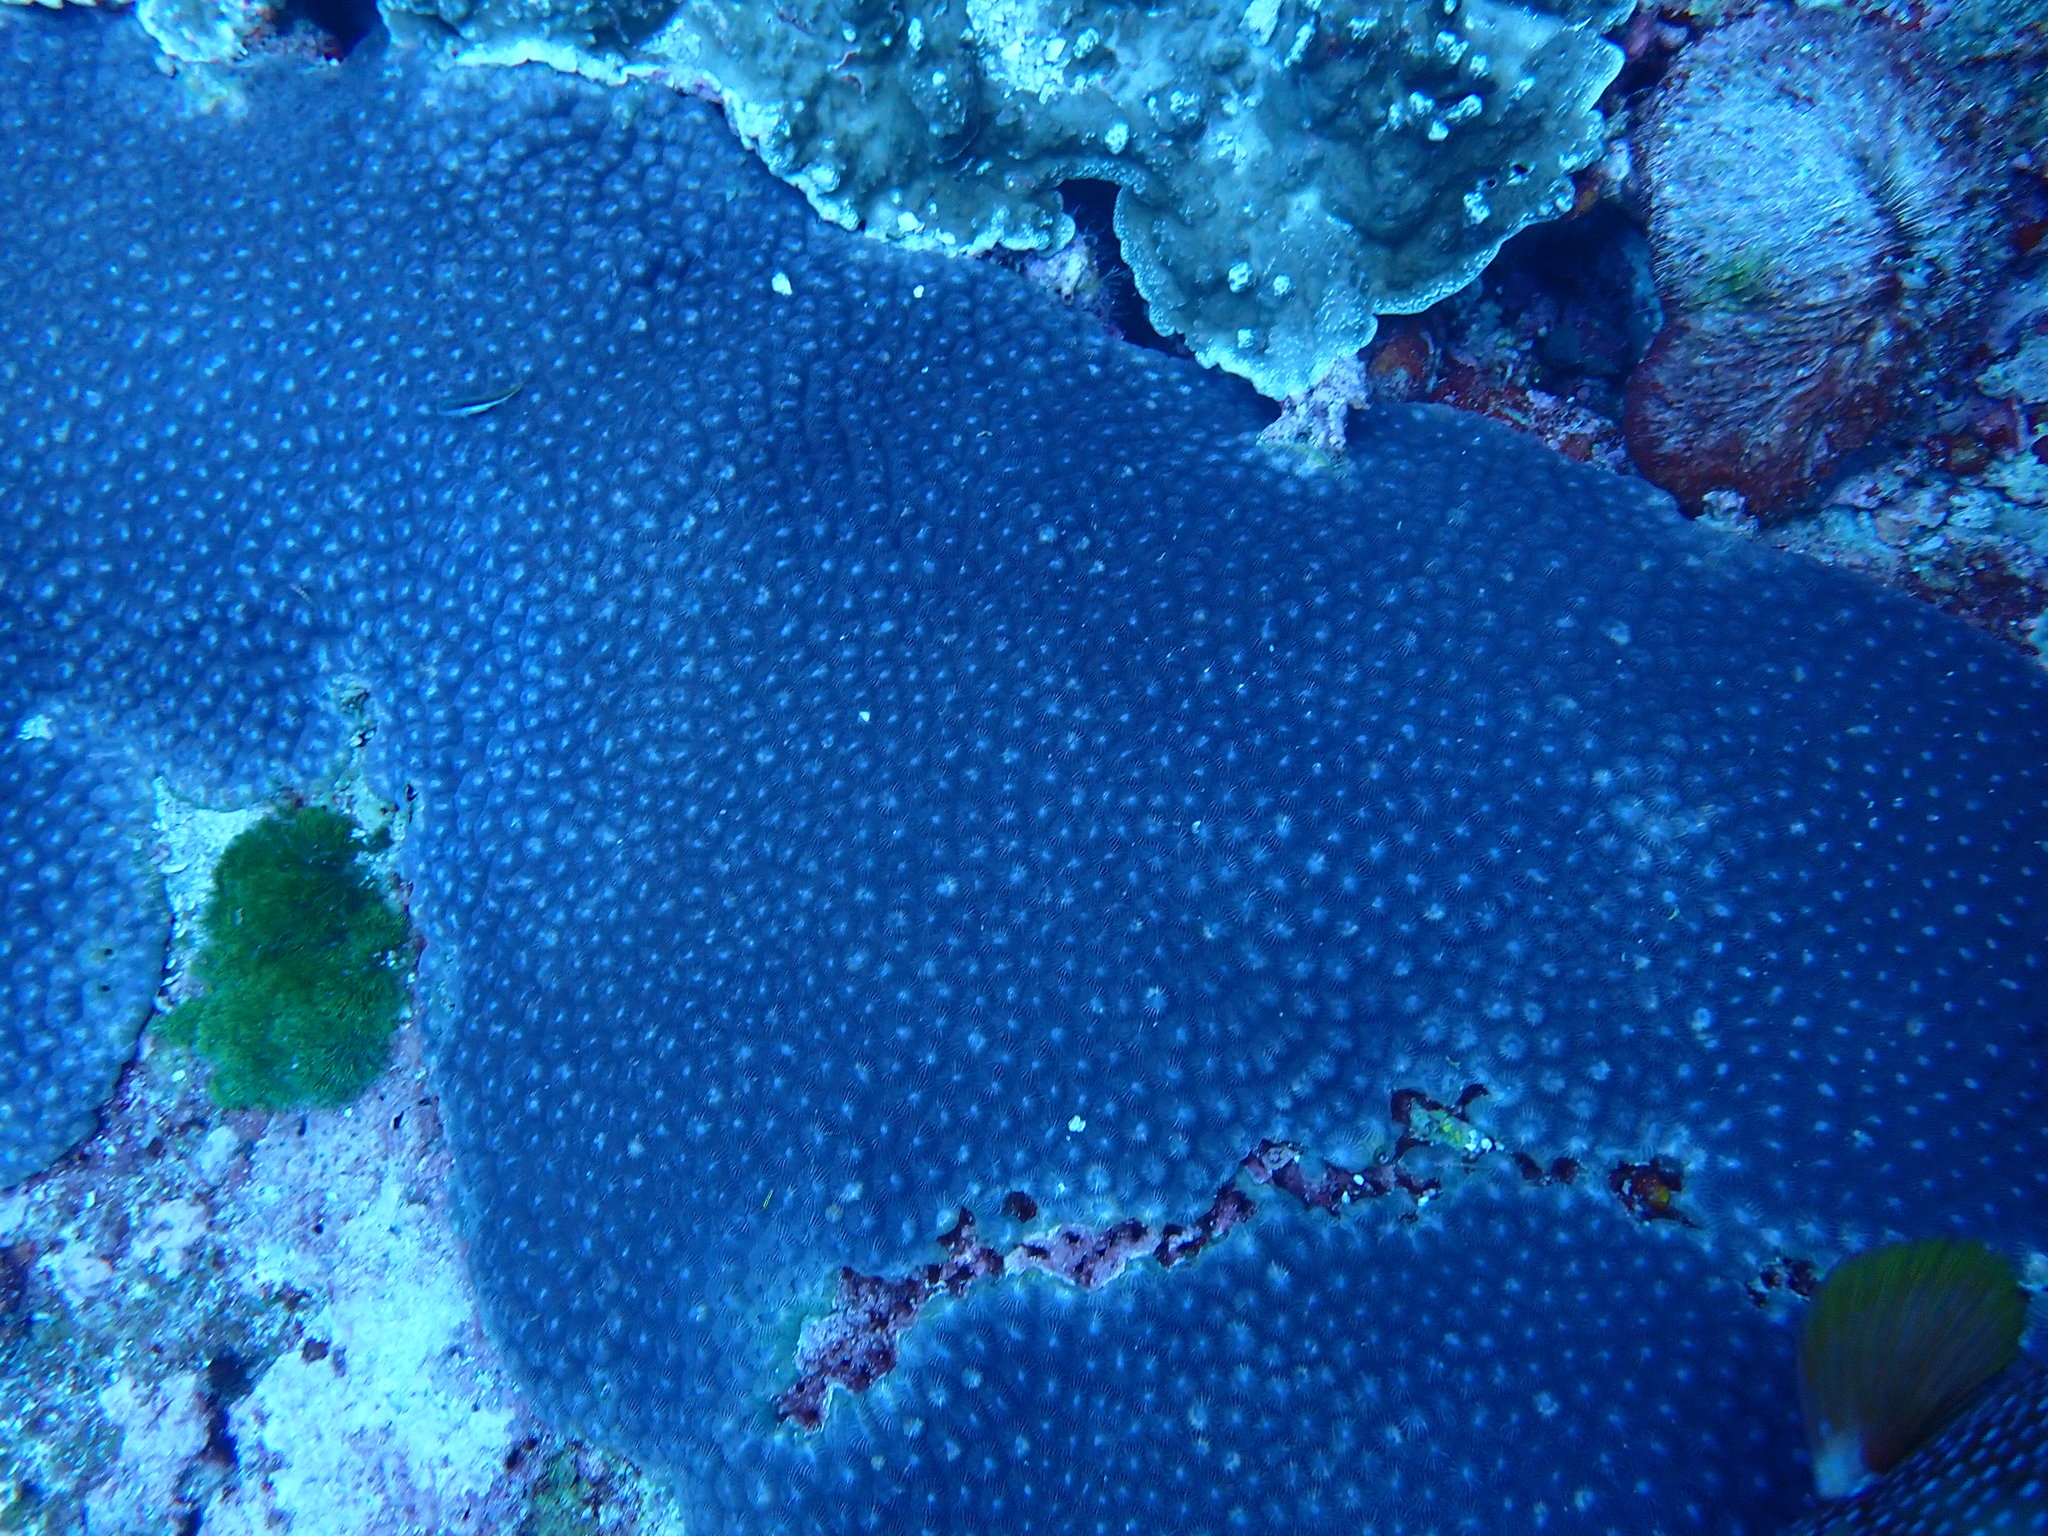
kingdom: Animalia
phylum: Cnidaria
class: Anthozoa
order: Scleractinia
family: Diploastraeidae
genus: Diploastrea
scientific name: Diploastrea heliopora
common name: Double-star coral
